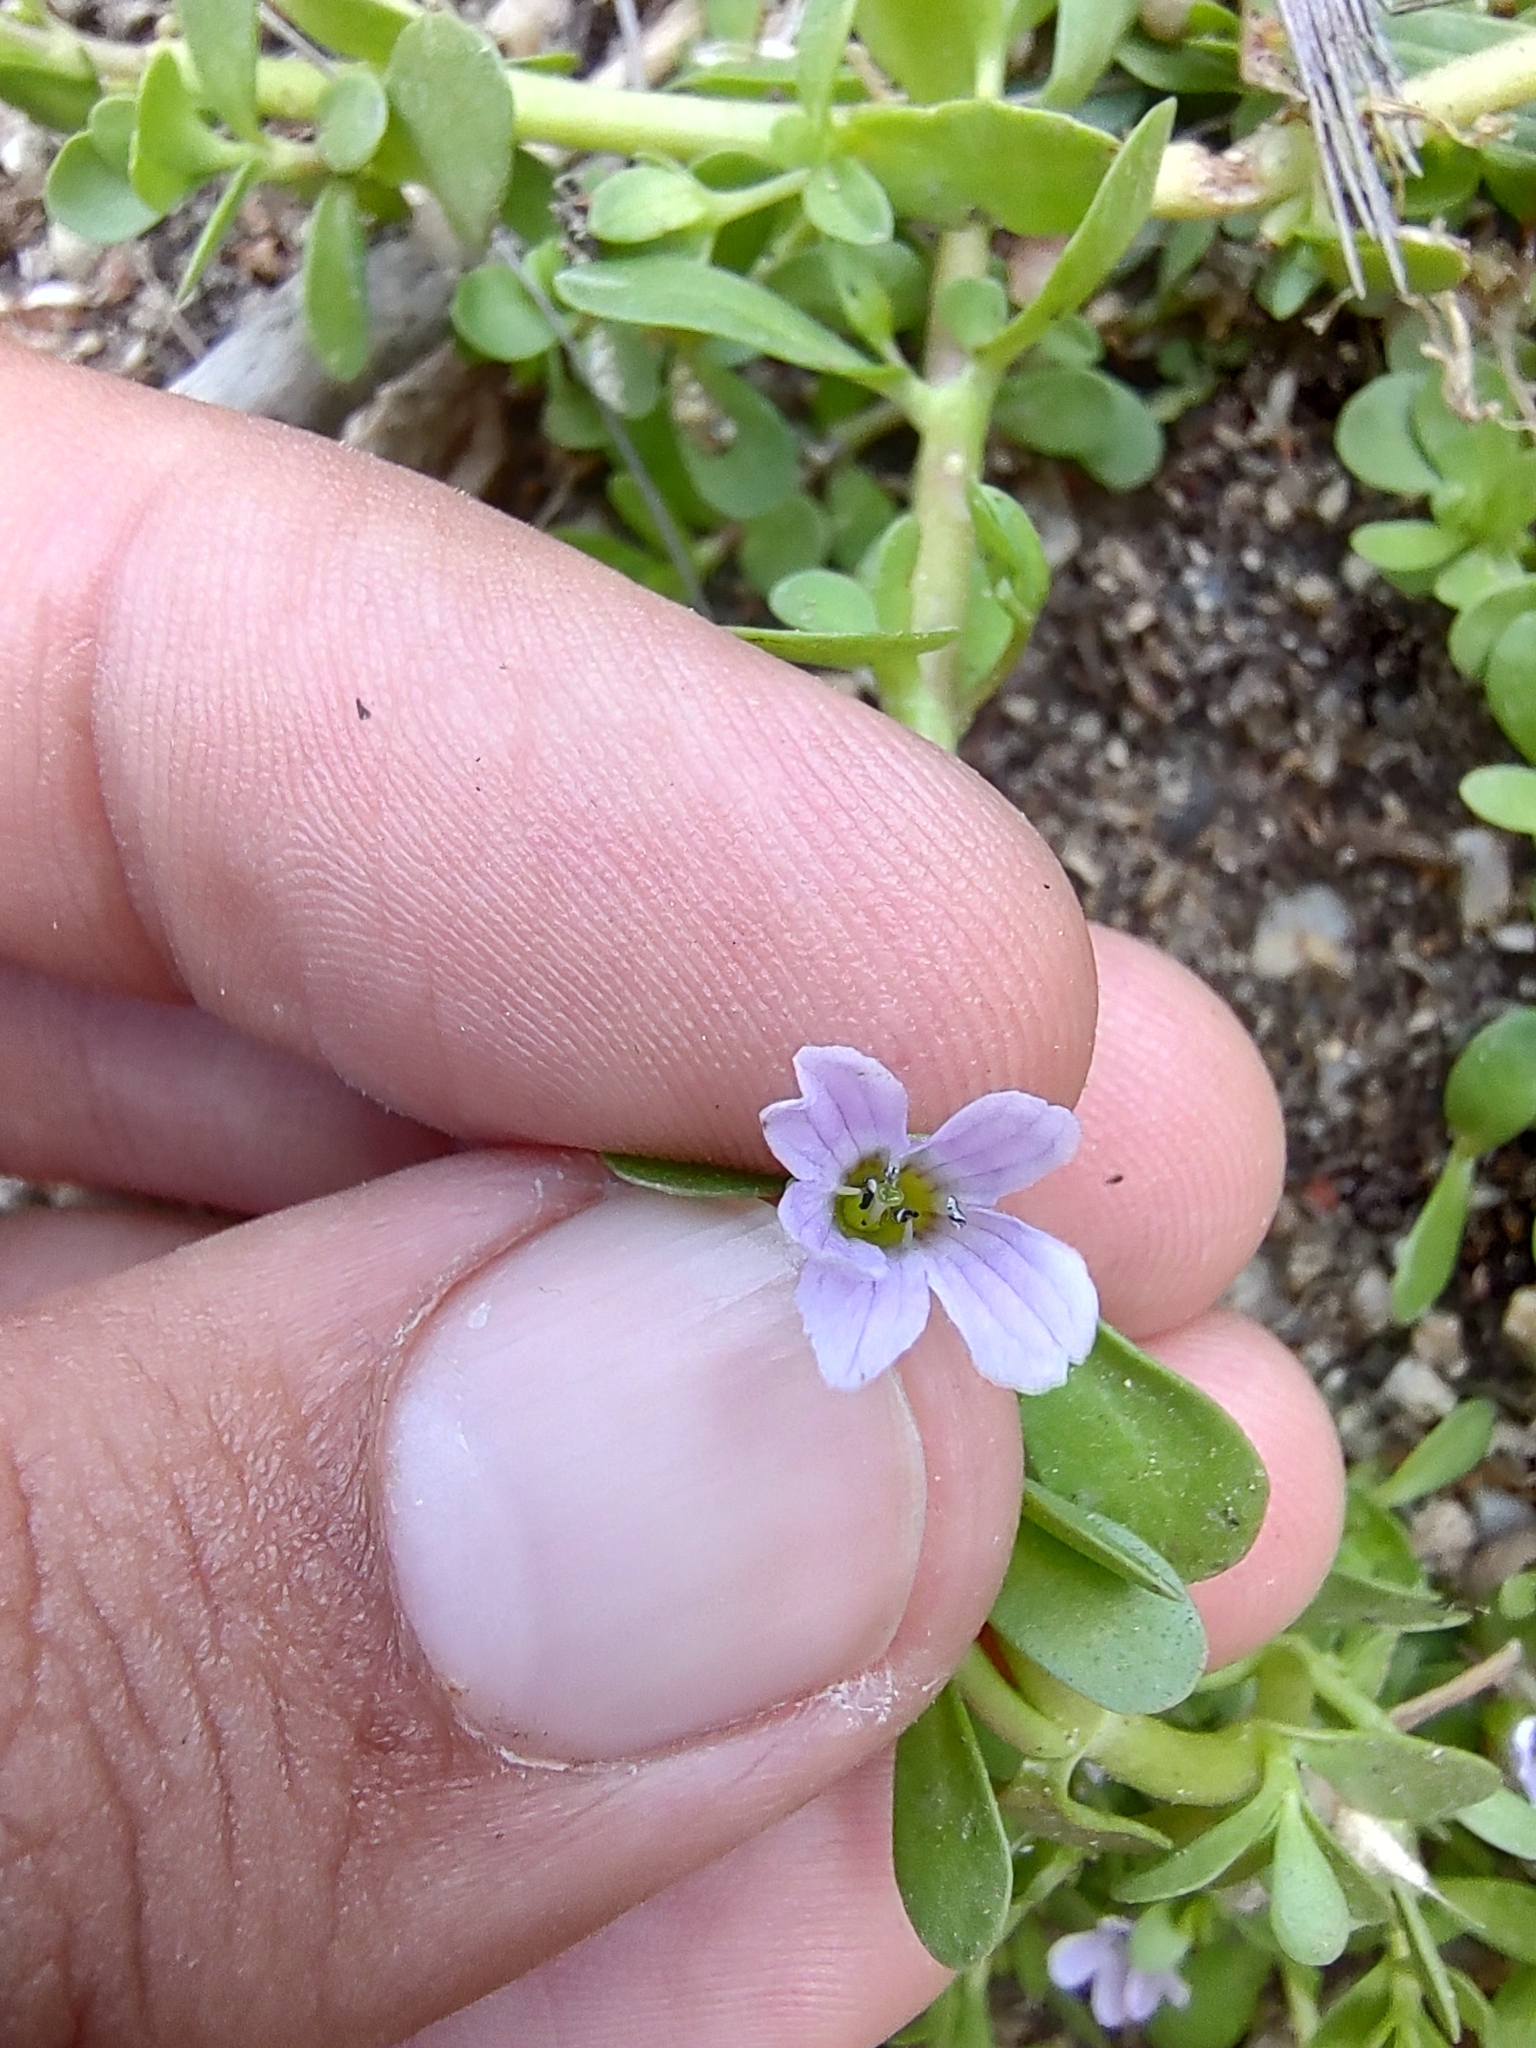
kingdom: Plantae
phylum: Tracheophyta
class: Magnoliopsida
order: Lamiales
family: Plantaginaceae
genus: Bacopa
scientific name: Bacopa monnieri
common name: Indian-pennywort
